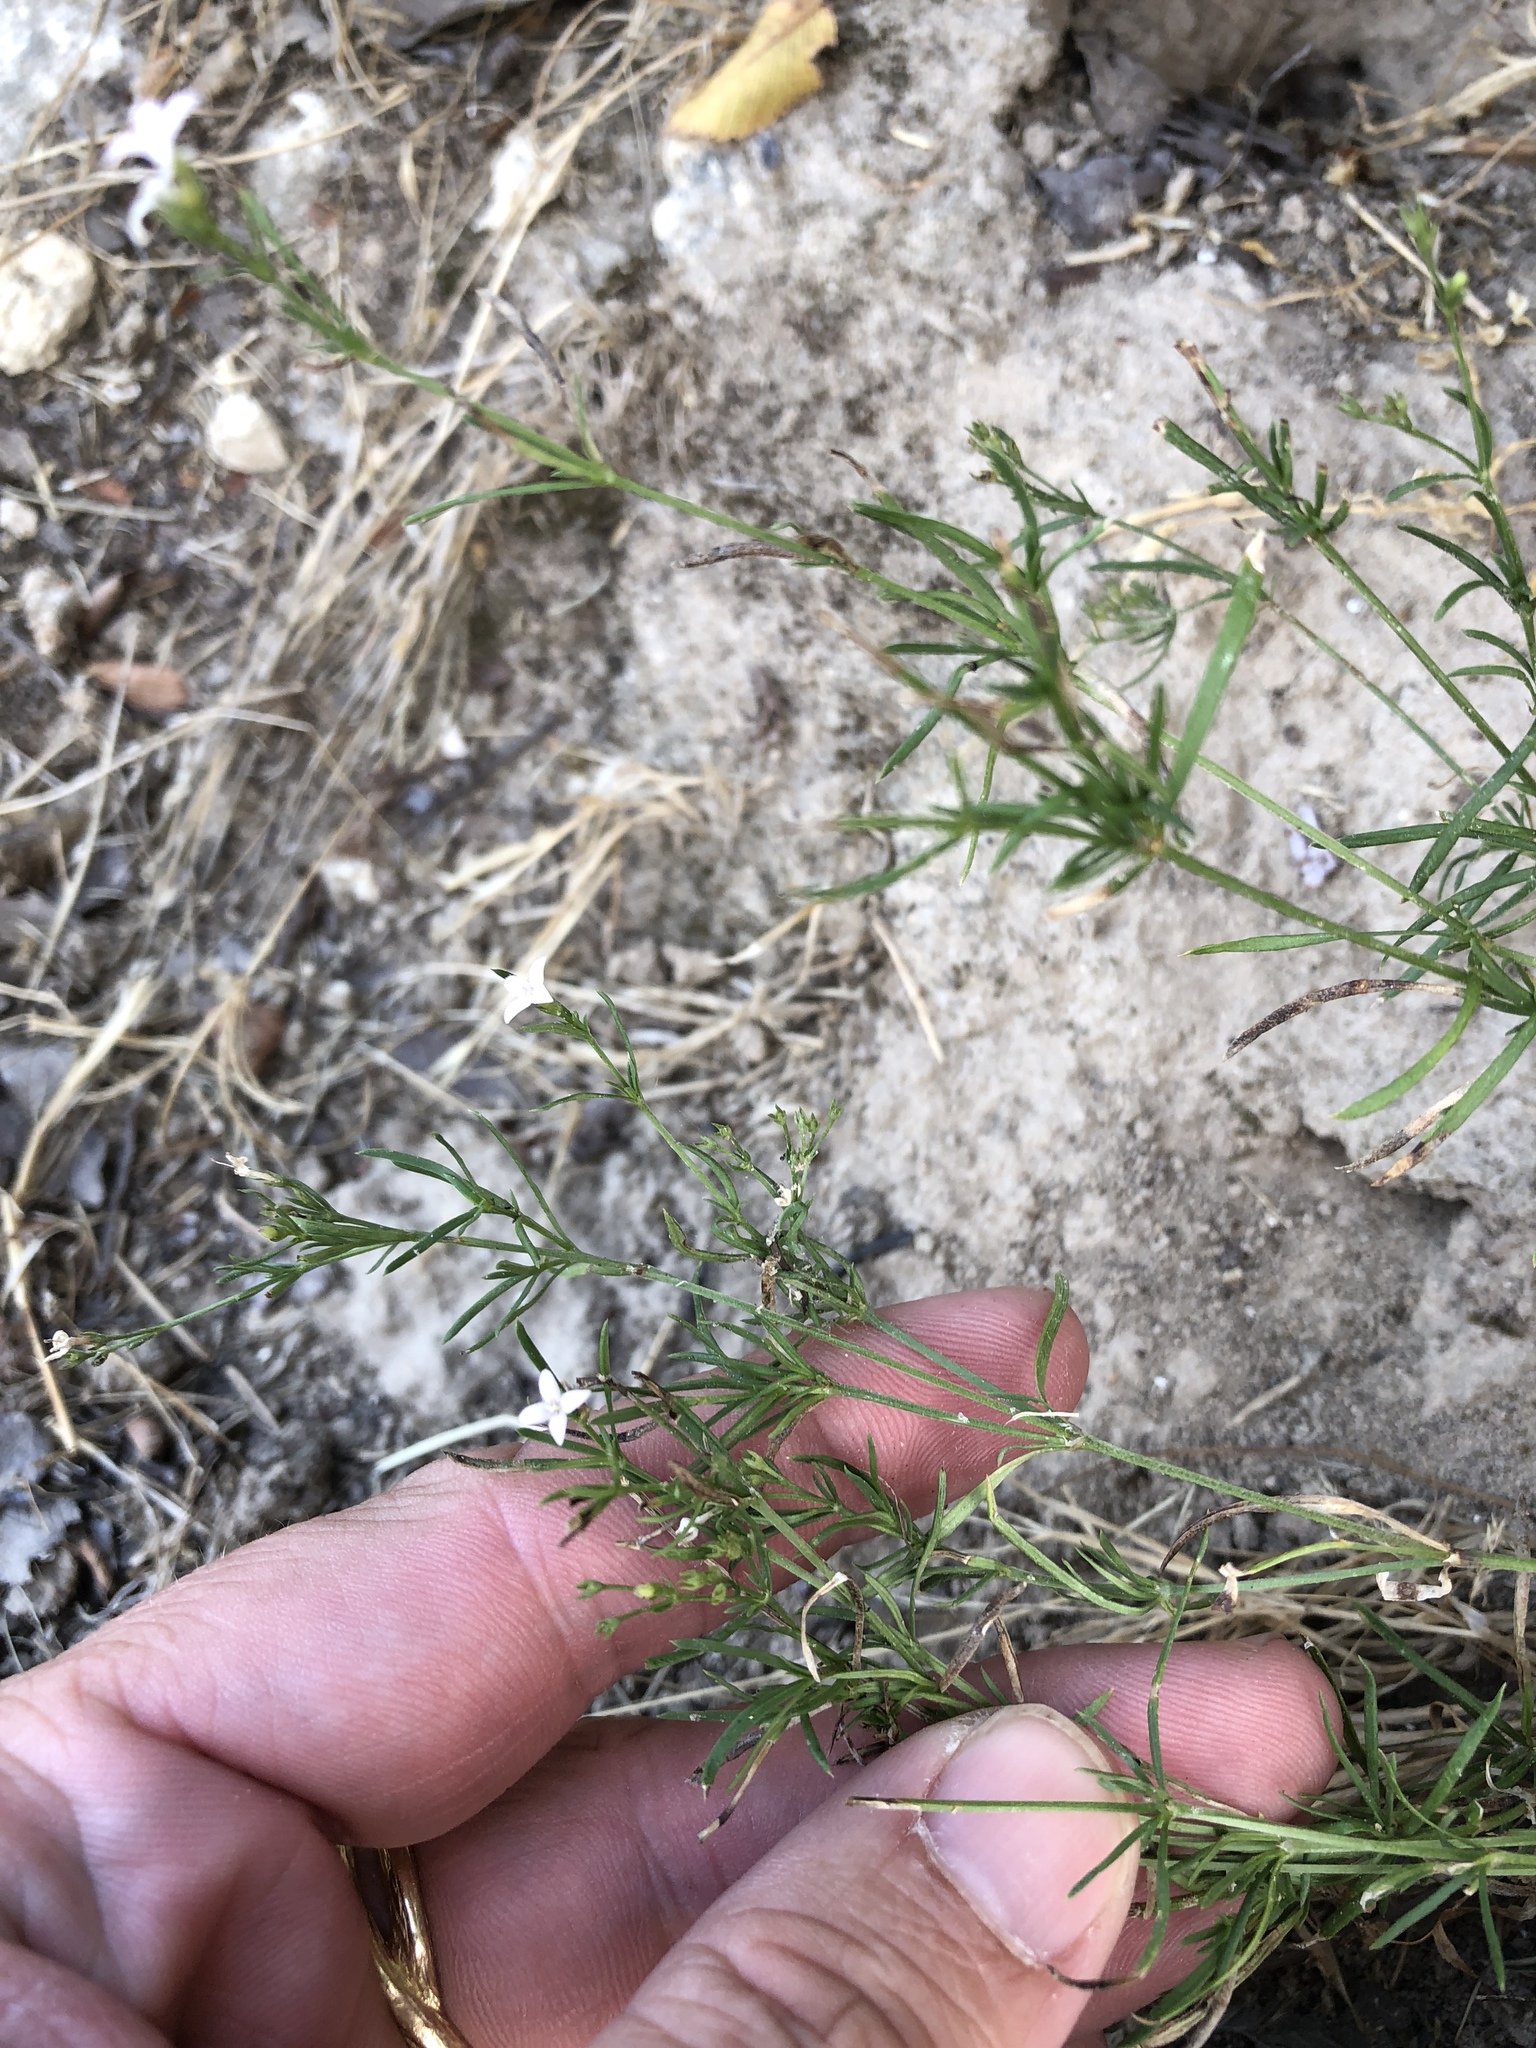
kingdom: Plantae
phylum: Tracheophyta
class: Magnoliopsida
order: Gentianales
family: Rubiaceae
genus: Stenaria
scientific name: Stenaria nigricans
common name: Diamondflowers
